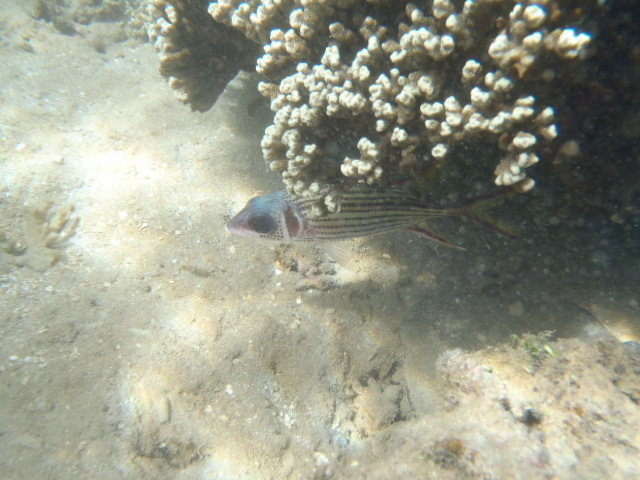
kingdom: Animalia
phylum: Chordata
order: Beryciformes
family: Holocentridae
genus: Neoniphon
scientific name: Neoniphon sammara
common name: Sammara squirrelfish
